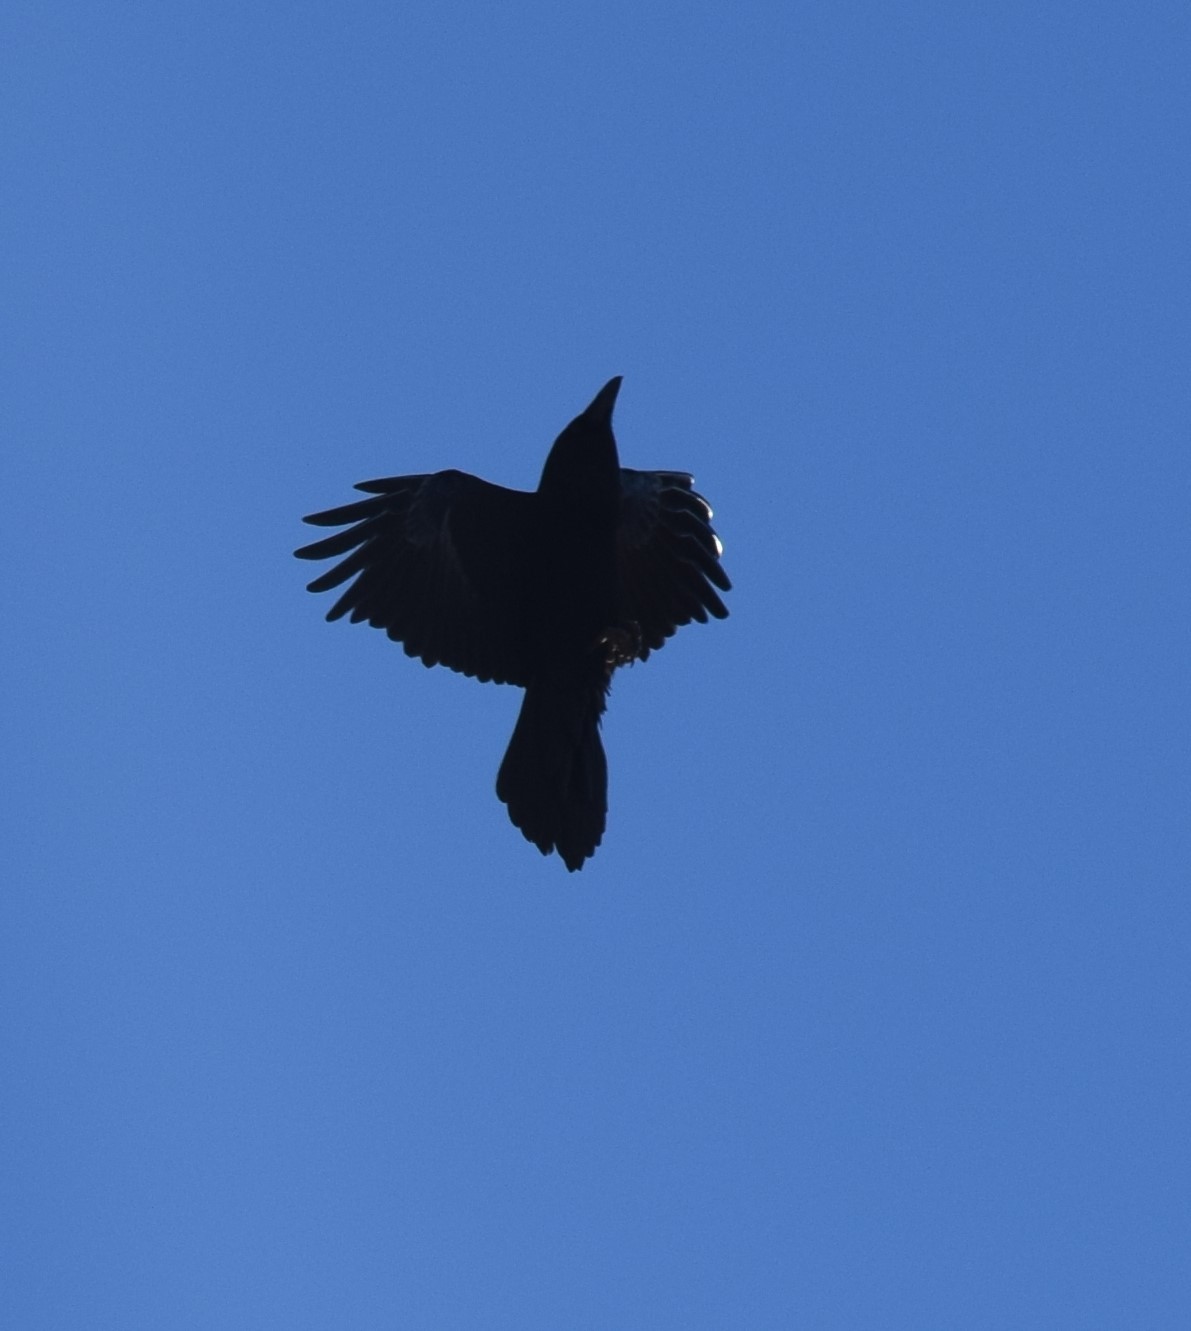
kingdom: Animalia
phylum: Chordata
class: Aves
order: Passeriformes
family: Corvidae
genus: Corvus
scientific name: Corvus corax
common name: Common raven
